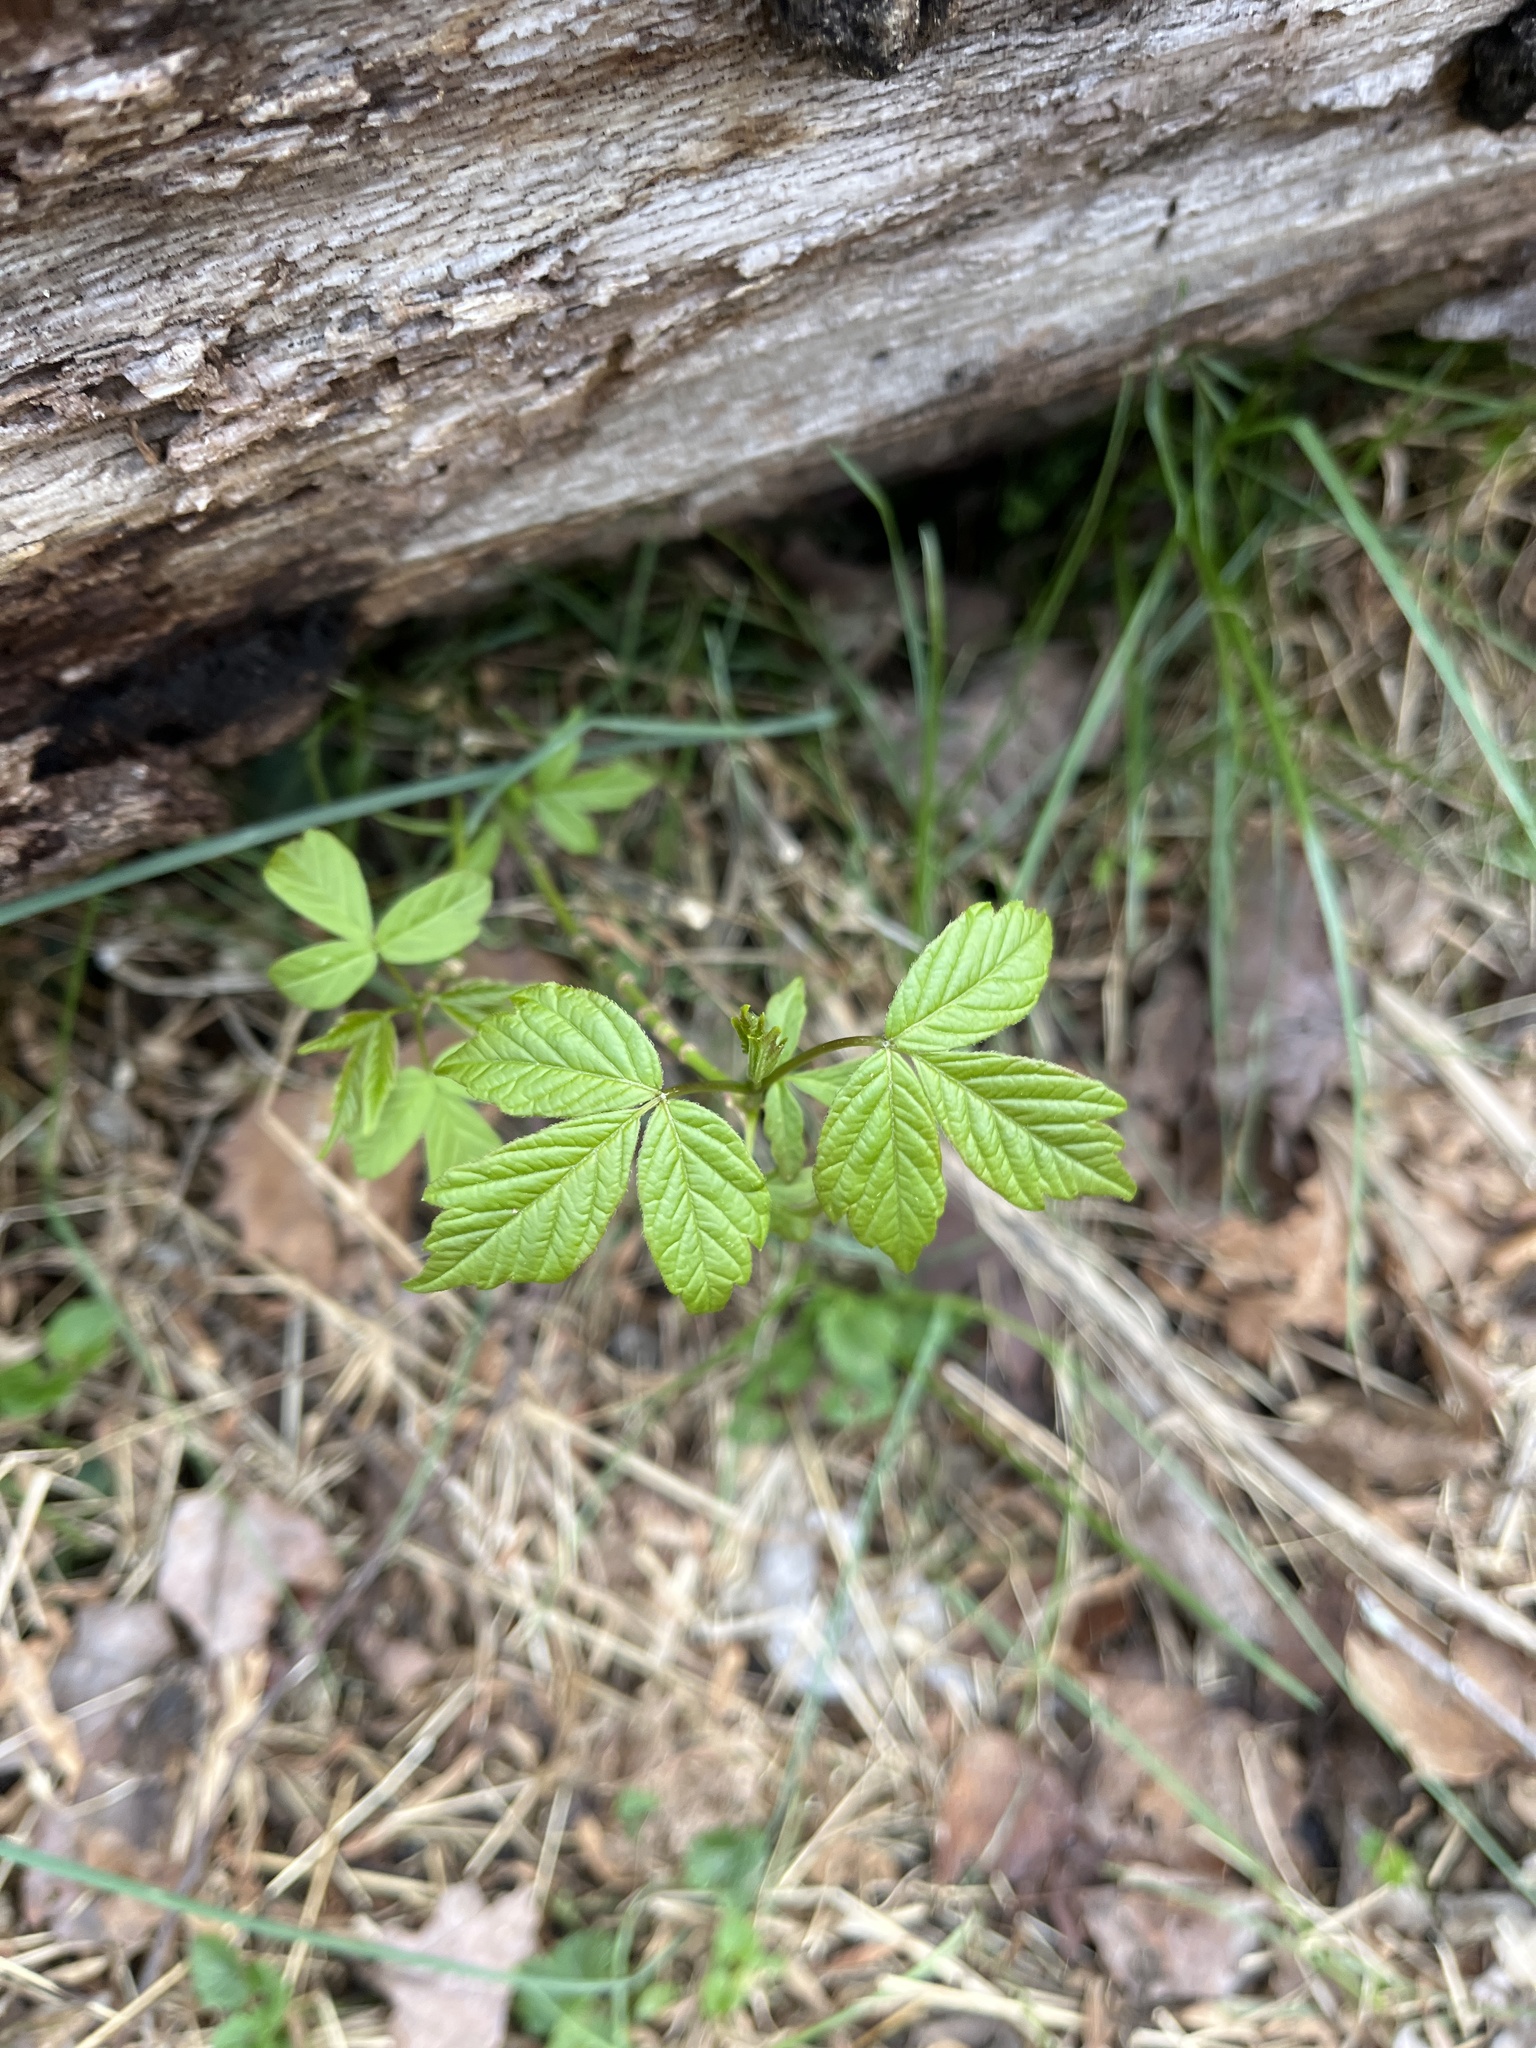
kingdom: Plantae
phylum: Tracheophyta
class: Magnoliopsida
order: Sapindales
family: Sapindaceae
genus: Acer
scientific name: Acer negundo
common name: Ashleaf maple
